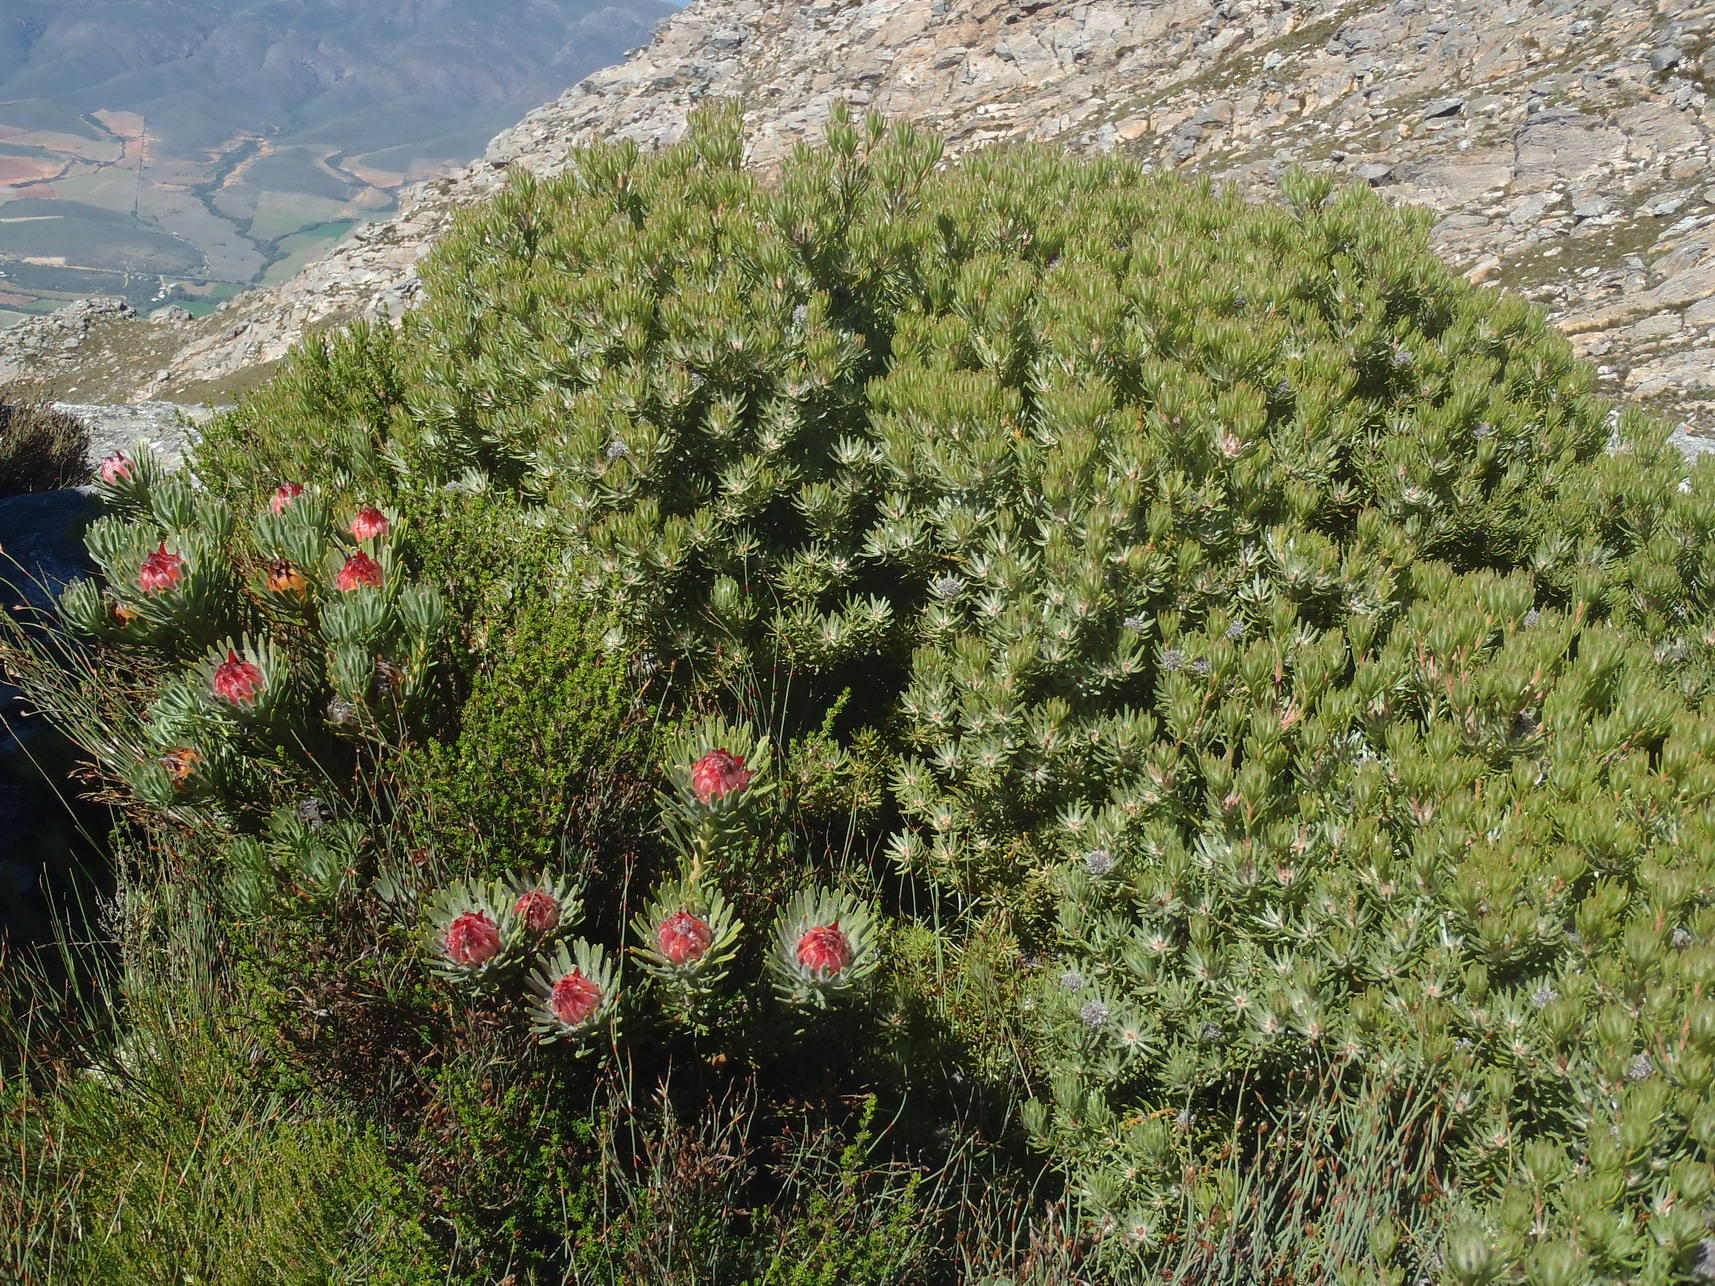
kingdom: Plantae
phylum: Tracheophyta
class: Magnoliopsida
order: Proteales
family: Proteaceae
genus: Leucadendron
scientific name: Leucadendron dregei
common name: Summit conebush
